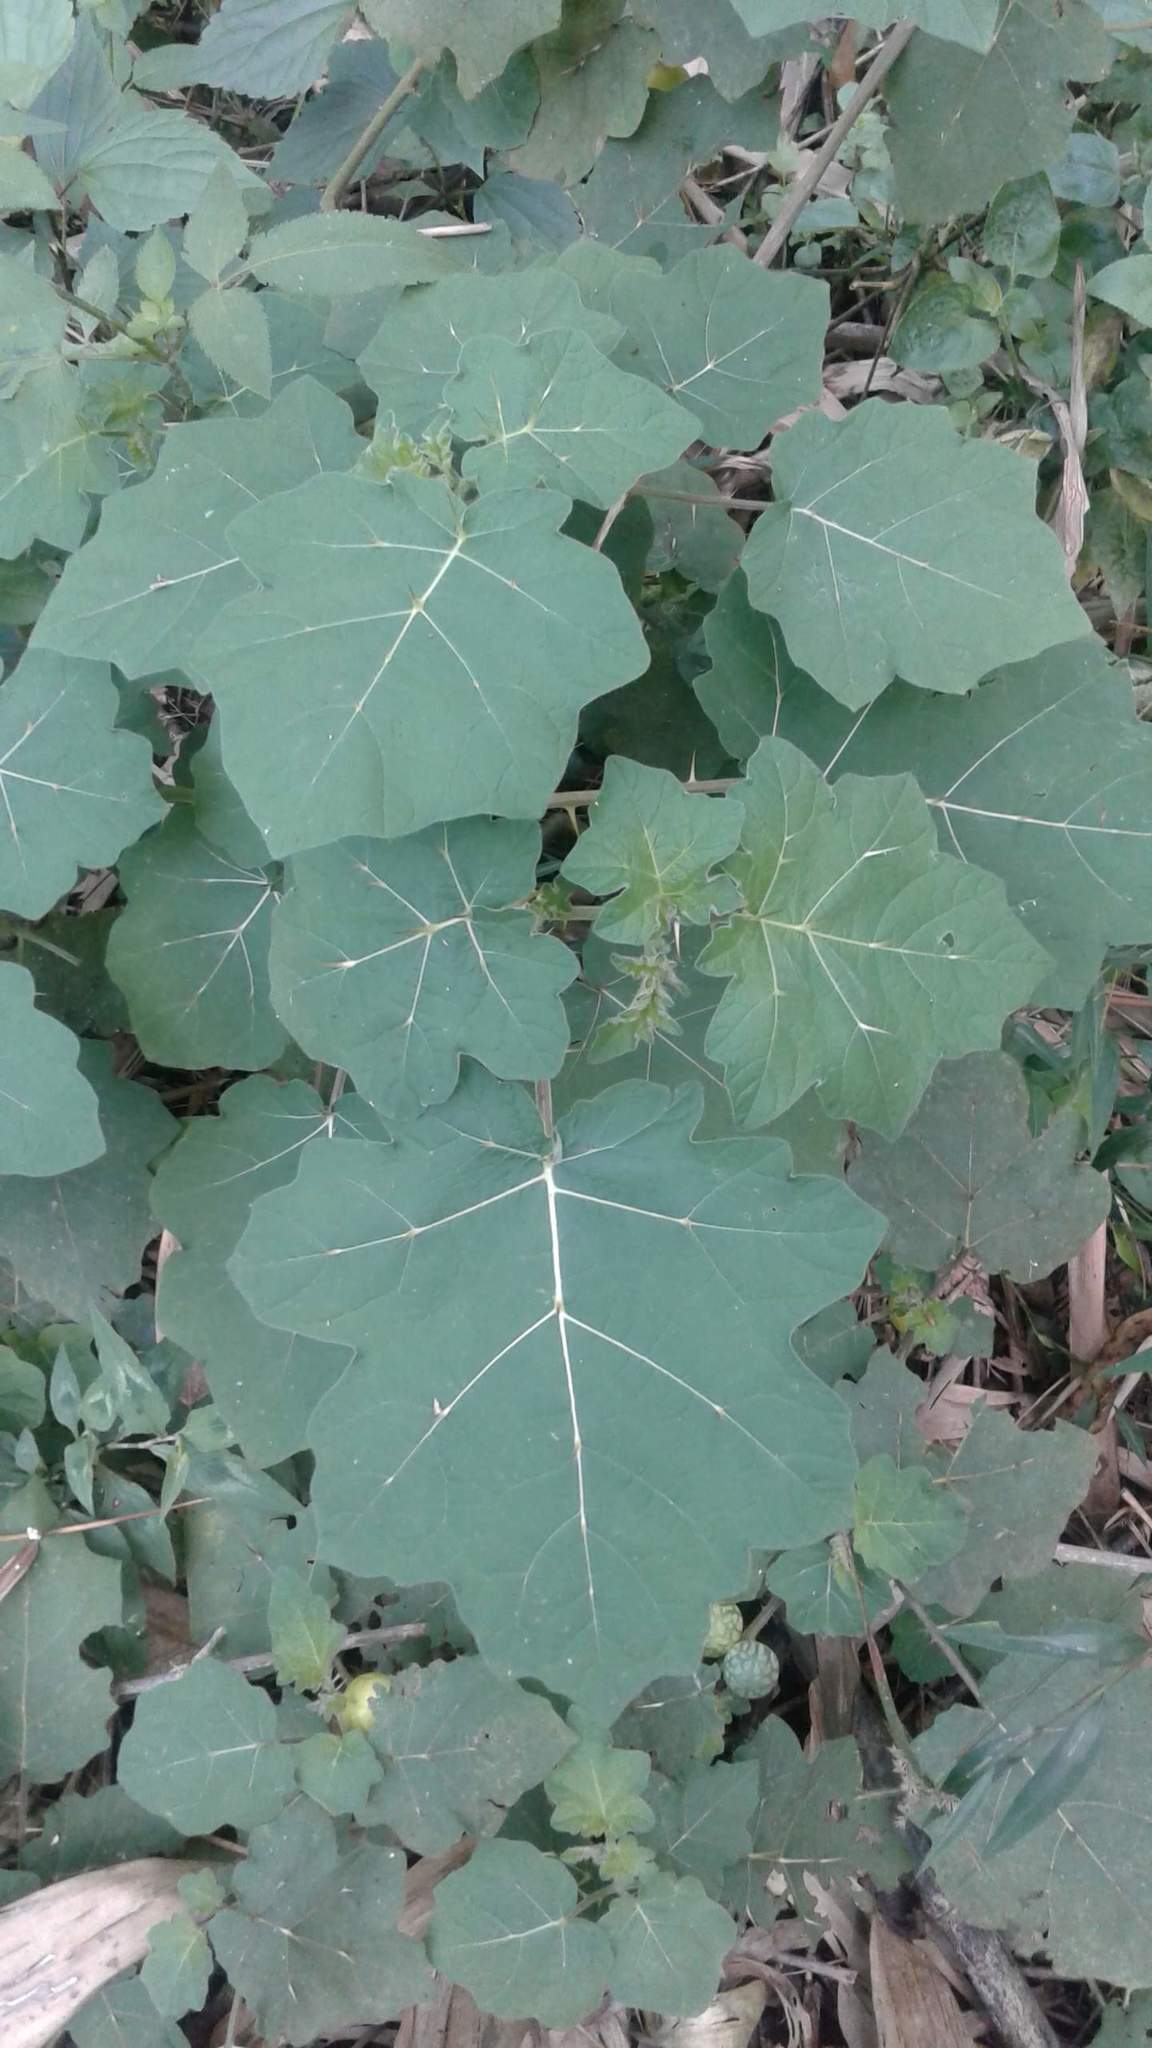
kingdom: Plantae
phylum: Tracheophyta
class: Magnoliopsida
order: Solanales
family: Solanaceae
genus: Solanum
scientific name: Solanum viarum
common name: Tropical soda apple
